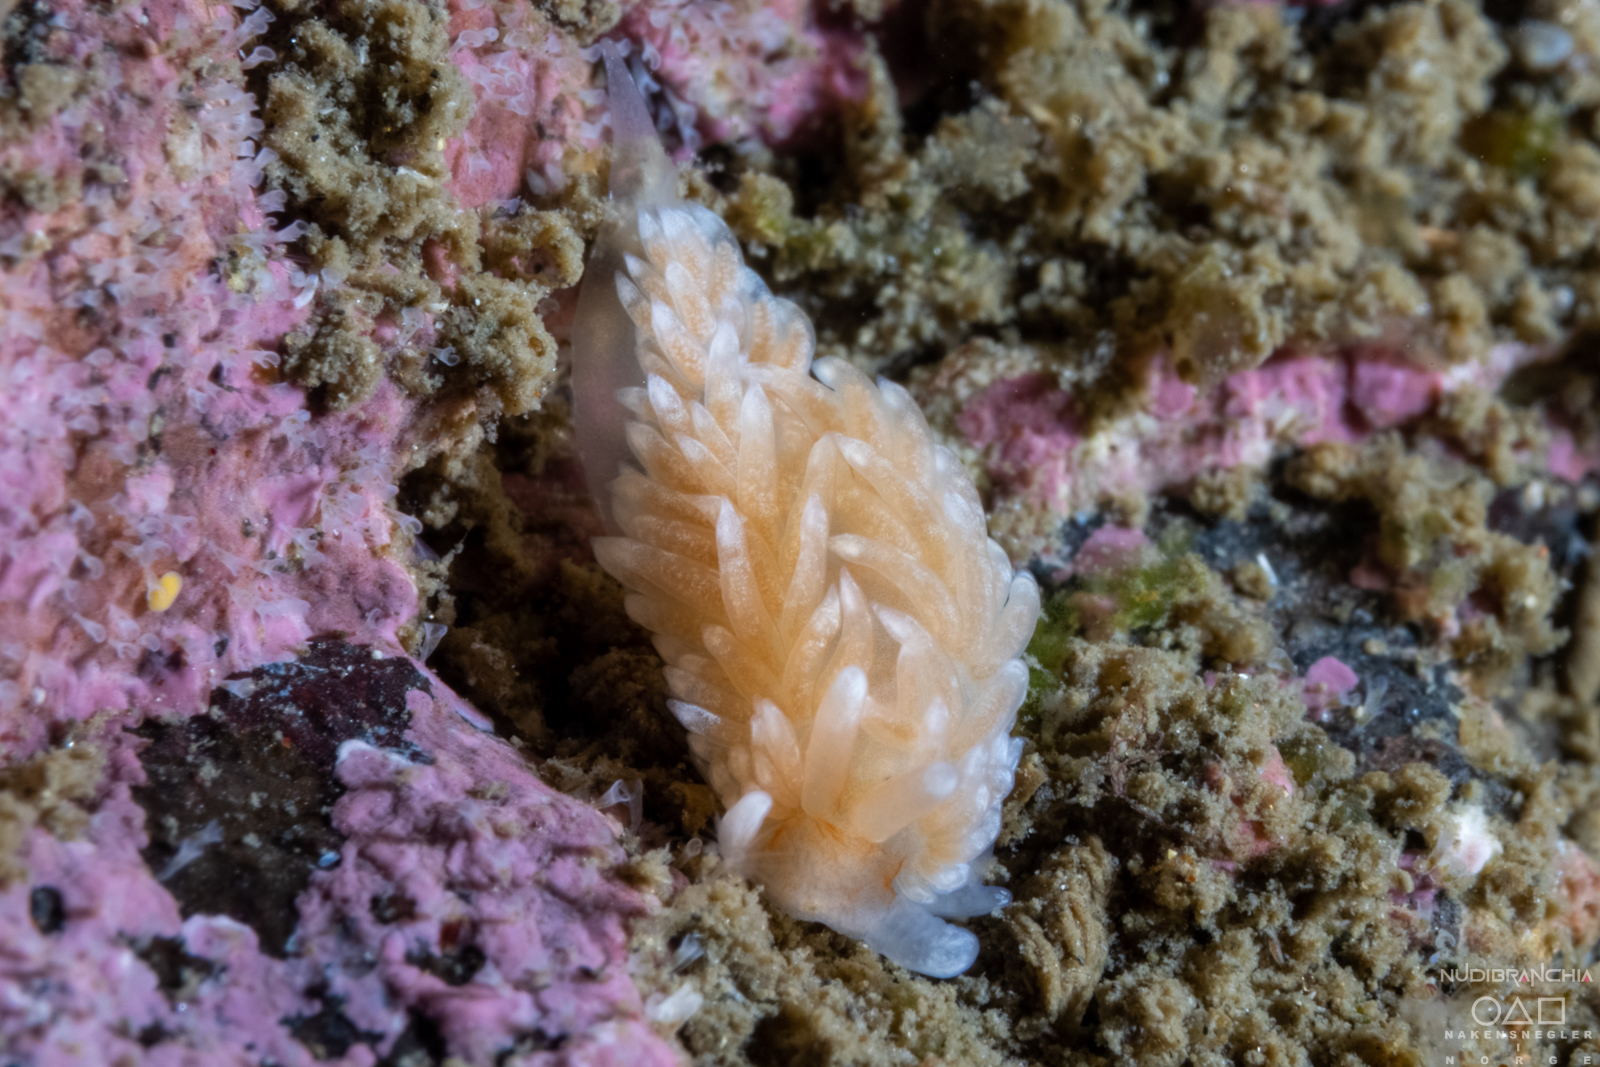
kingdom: Animalia
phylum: Mollusca
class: Gastropoda
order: Nudibranchia
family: Aeolidiidae
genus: Aeolidiella
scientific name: Aeolidiella glauca
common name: Orange-brown aeolid
